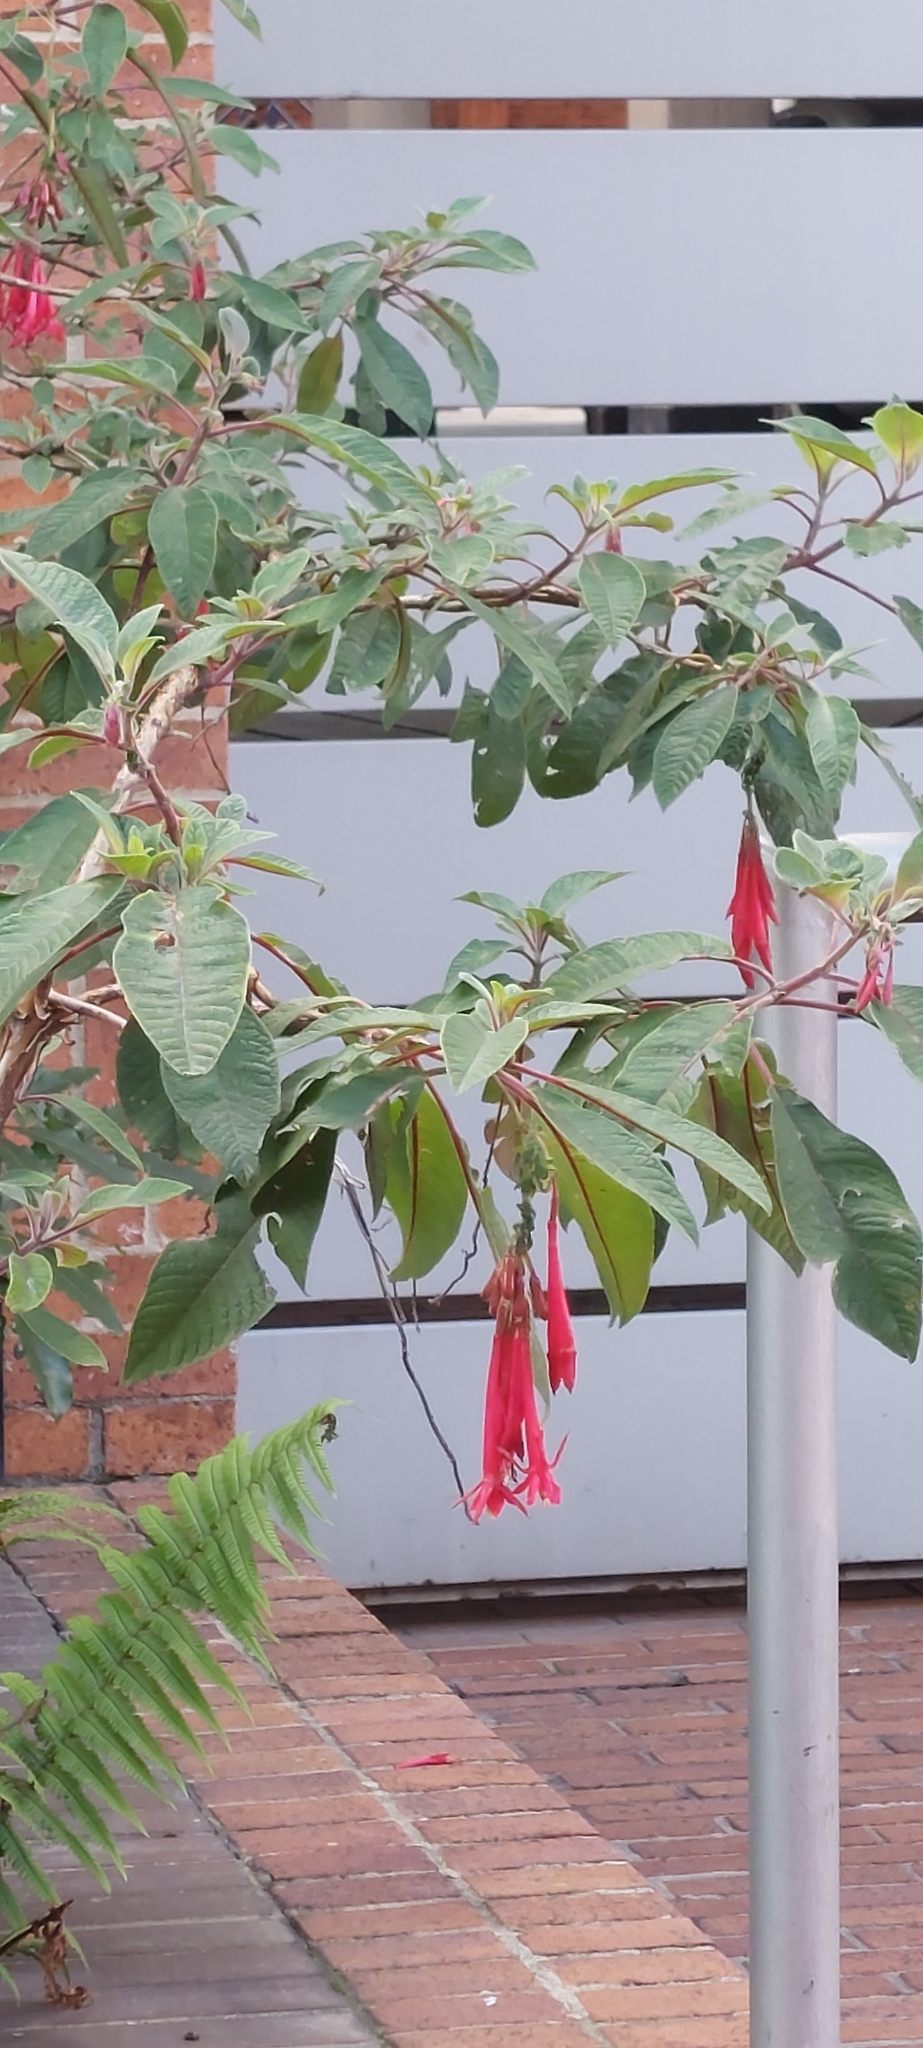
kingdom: Plantae
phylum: Tracheophyta
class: Magnoliopsida
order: Myrtales
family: Onagraceae
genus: Fuchsia
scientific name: Fuchsia boliviana
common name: Bolivian fuchsia
